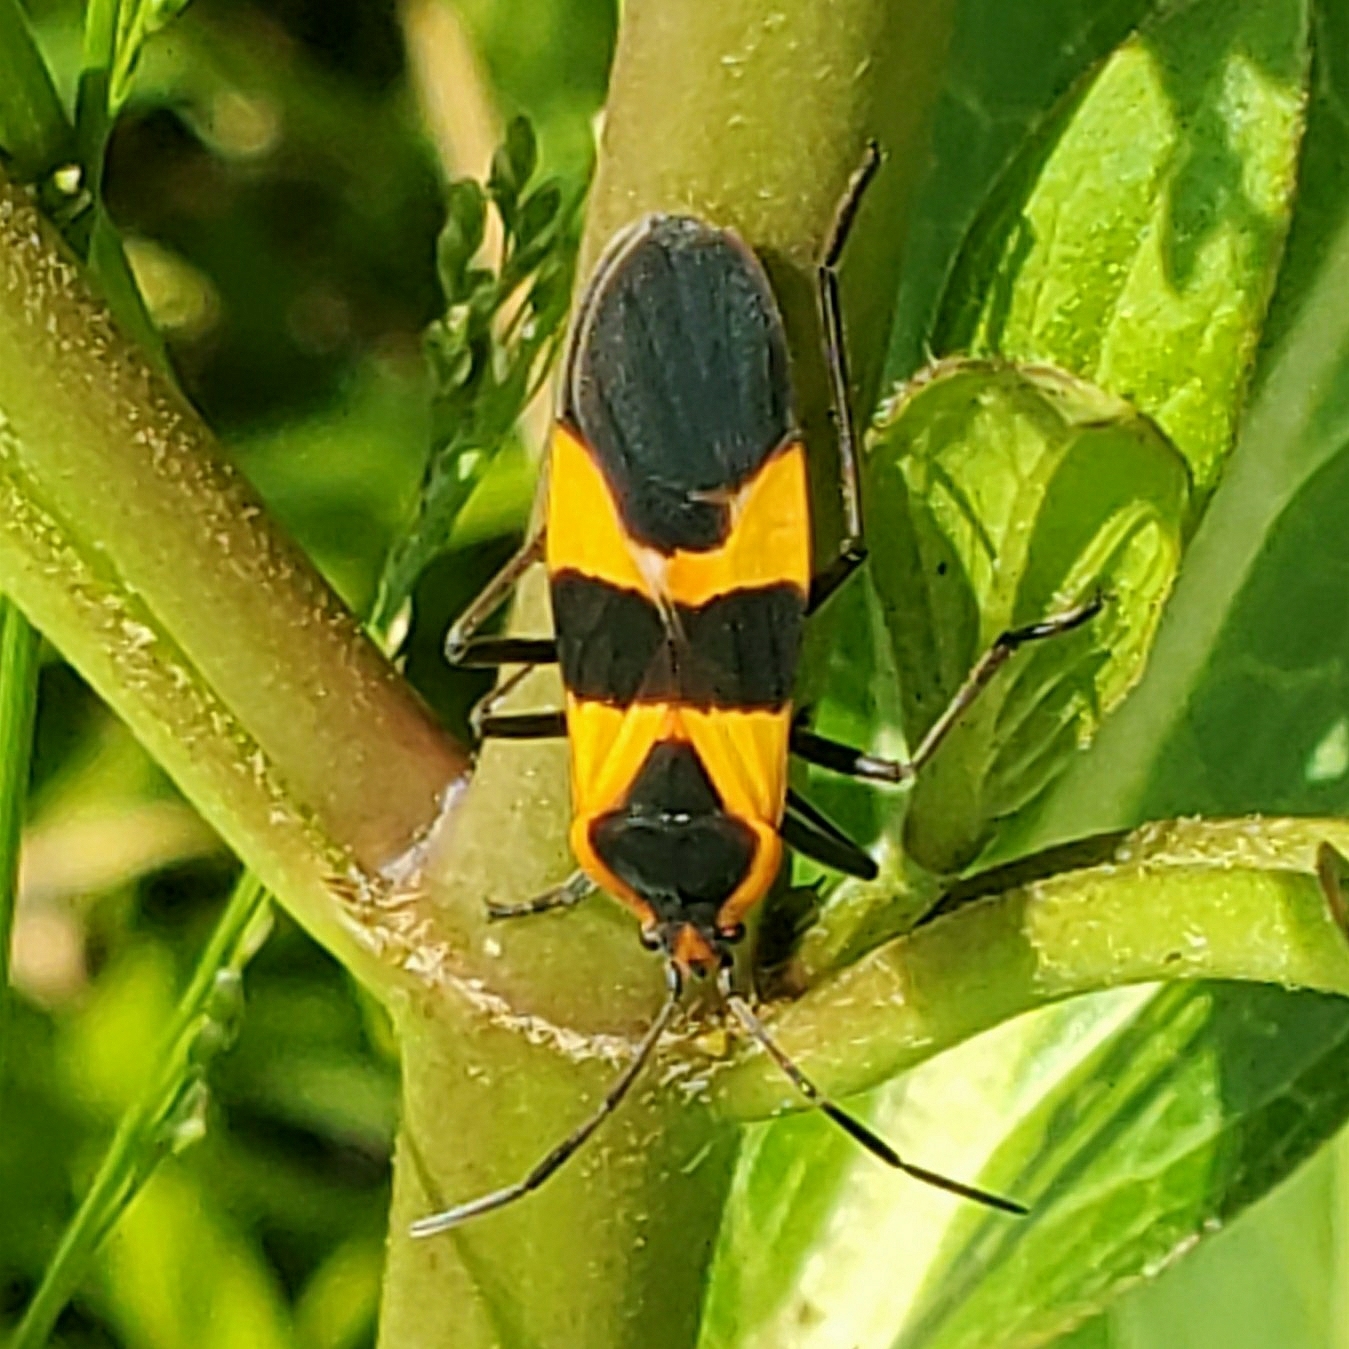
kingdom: Animalia
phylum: Arthropoda
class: Insecta
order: Hemiptera
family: Lygaeidae
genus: Oncopeltus
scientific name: Oncopeltus fasciatus
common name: Large milkweed bug
